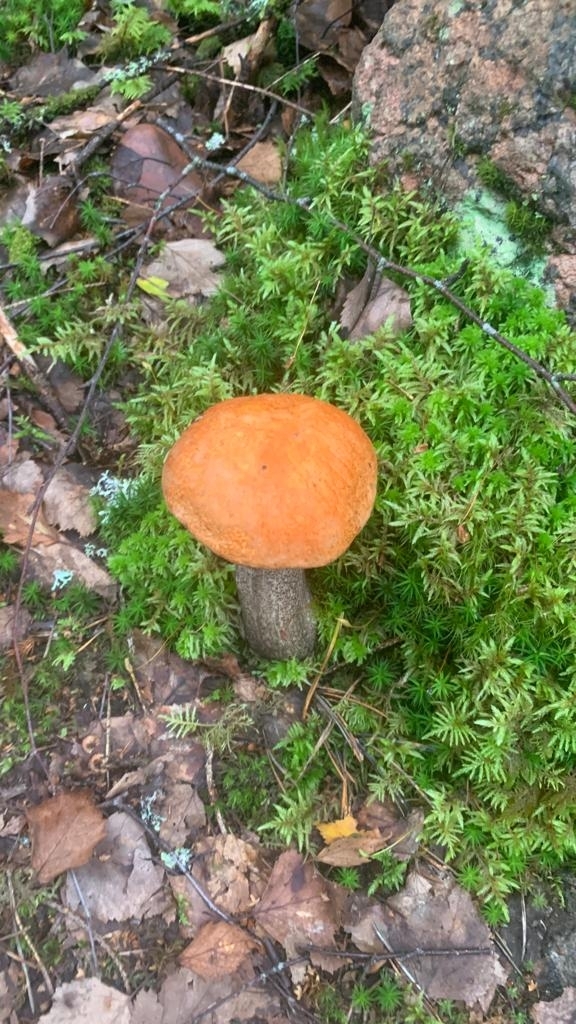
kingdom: Fungi
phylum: Basidiomycota
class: Agaricomycetes
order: Boletales
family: Boletaceae
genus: Leccinum
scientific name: Leccinum versipelle
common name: Orange birch bolete
